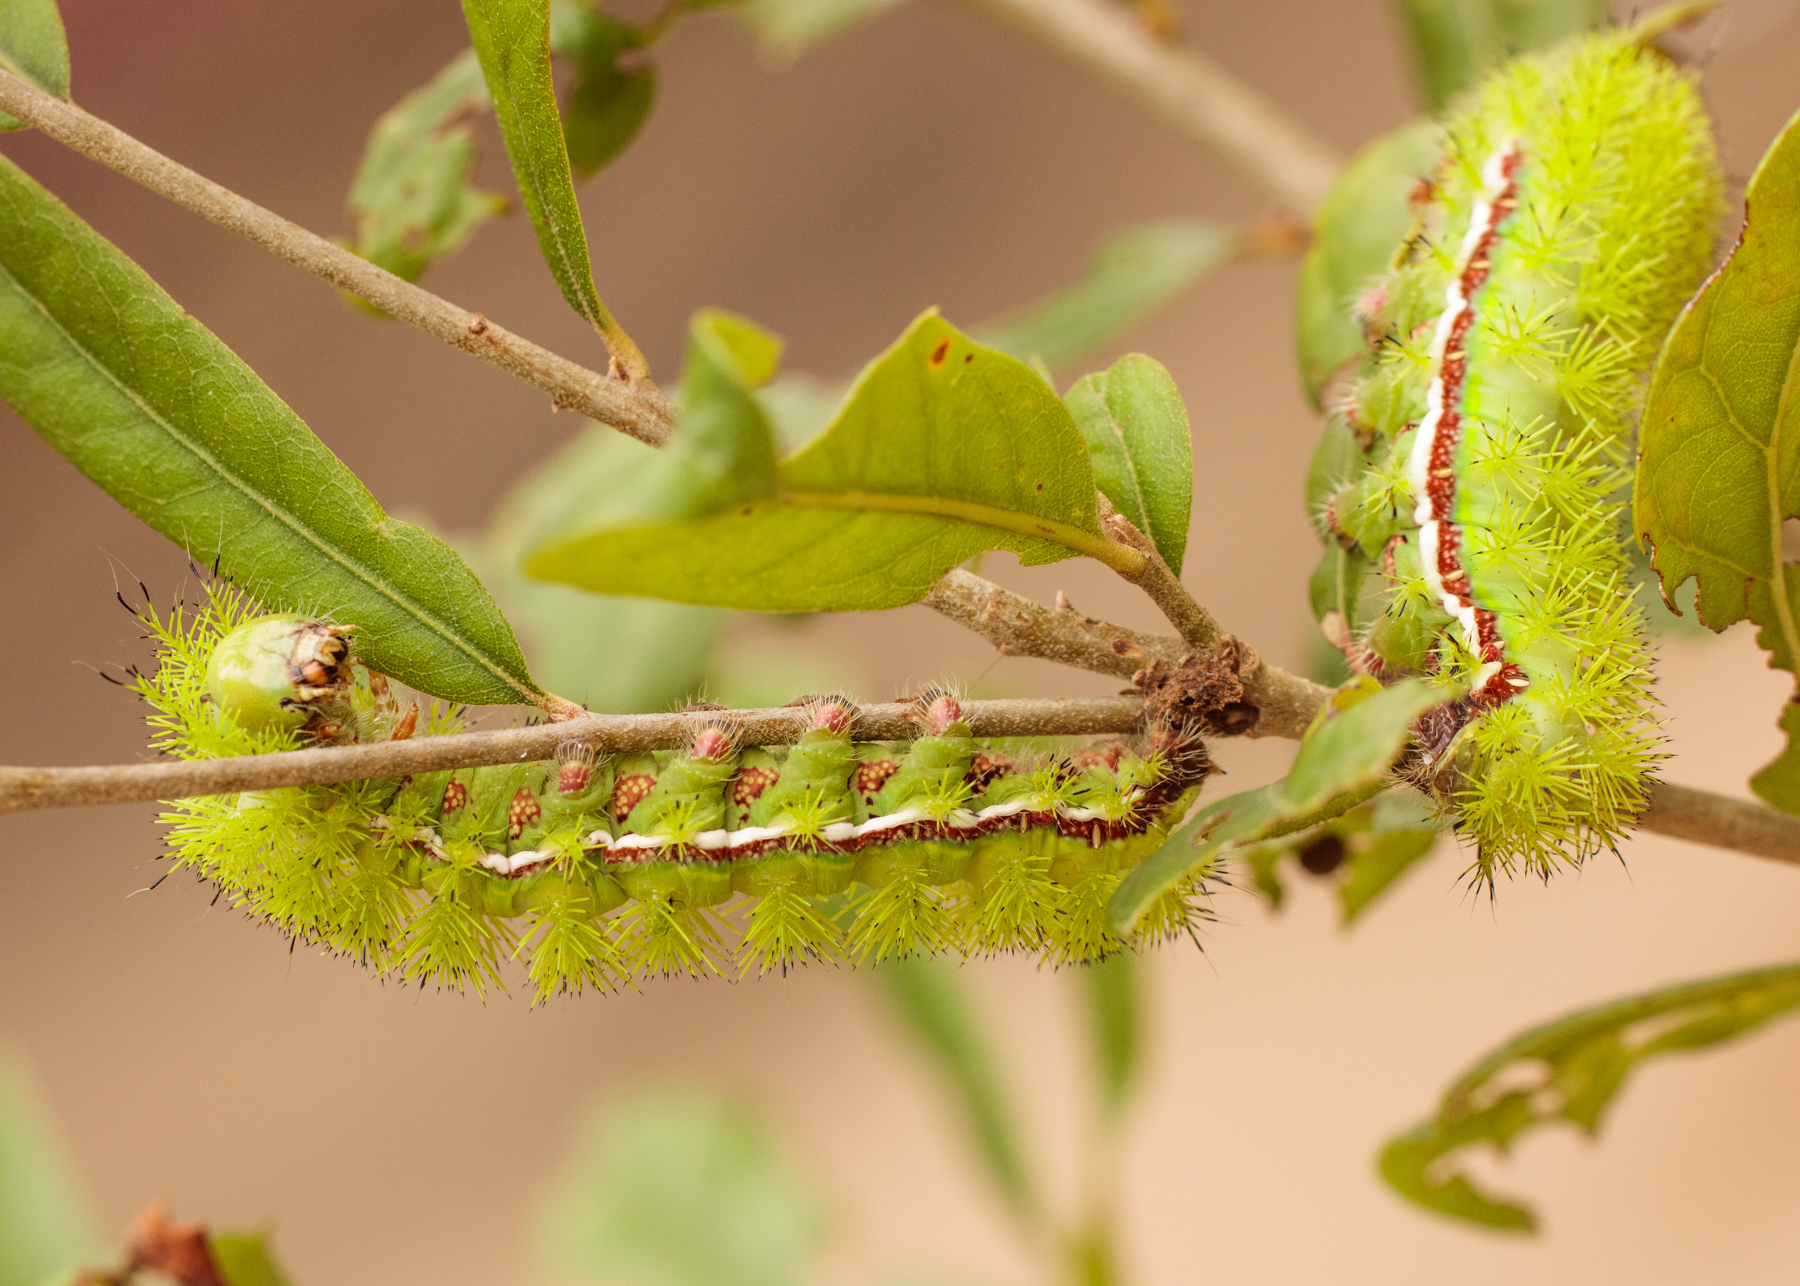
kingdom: Animalia
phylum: Arthropoda
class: Insecta
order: Lepidoptera
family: Saturniidae
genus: Automeris
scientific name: Automeris io
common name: Io moth
